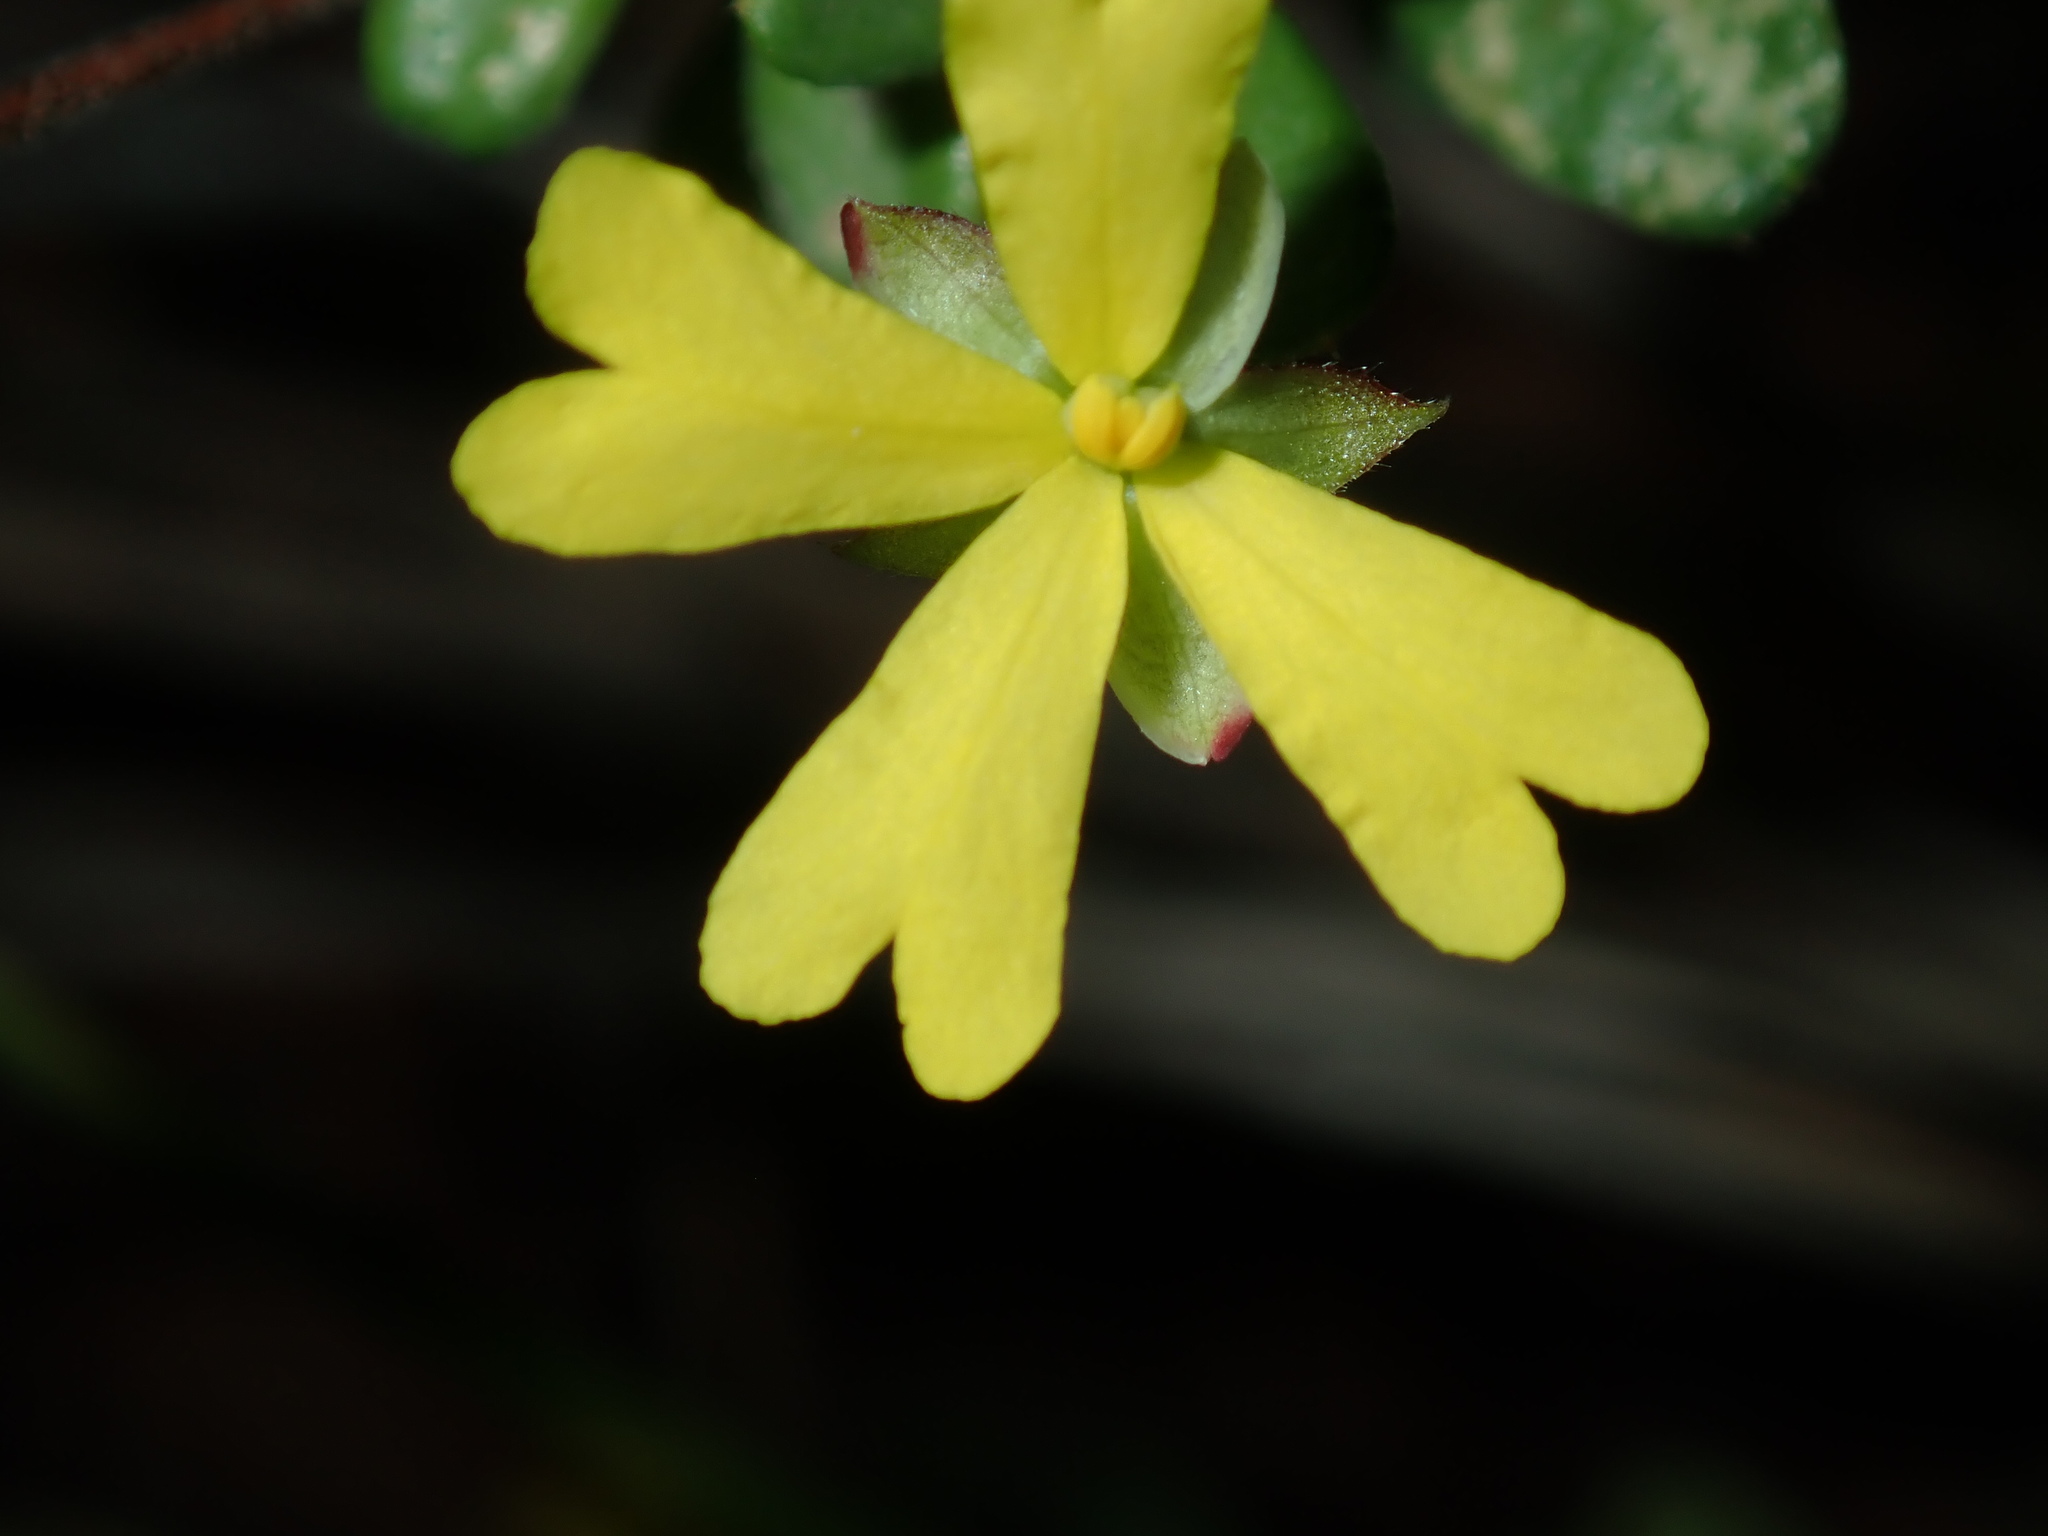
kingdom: Plantae
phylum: Tracheophyta
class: Magnoliopsida
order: Dilleniales
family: Dilleniaceae
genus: Hibbertia
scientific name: Hibbertia empetrifolia
